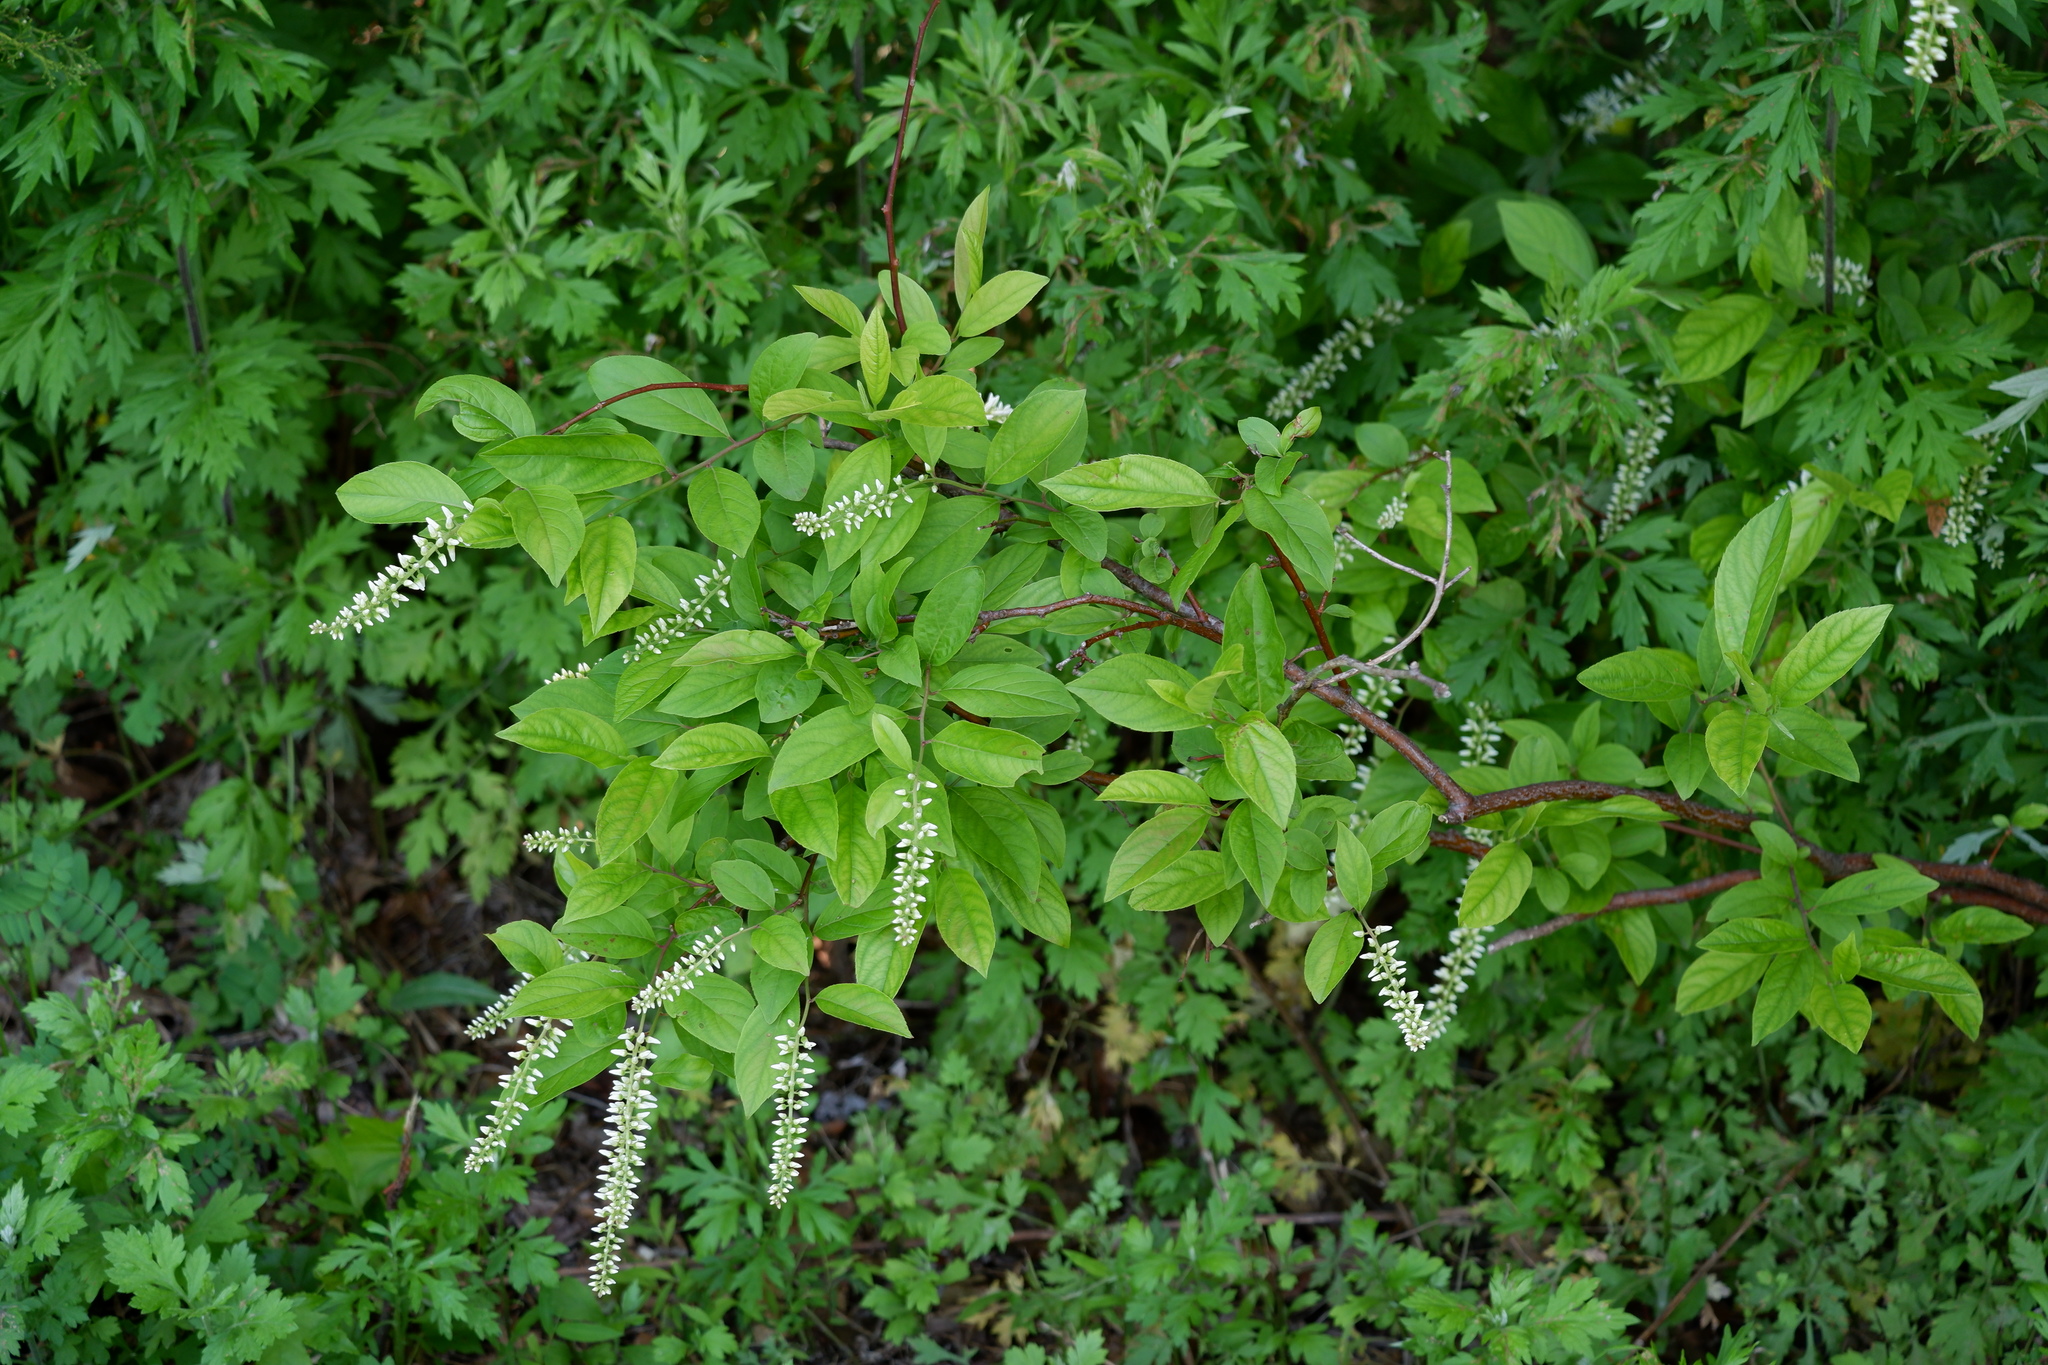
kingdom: Plantae
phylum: Tracheophyta
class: Magnoliopsida
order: Saxifragales
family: Iteaceae
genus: Itea
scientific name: Itea virginica
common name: Sweetspire
